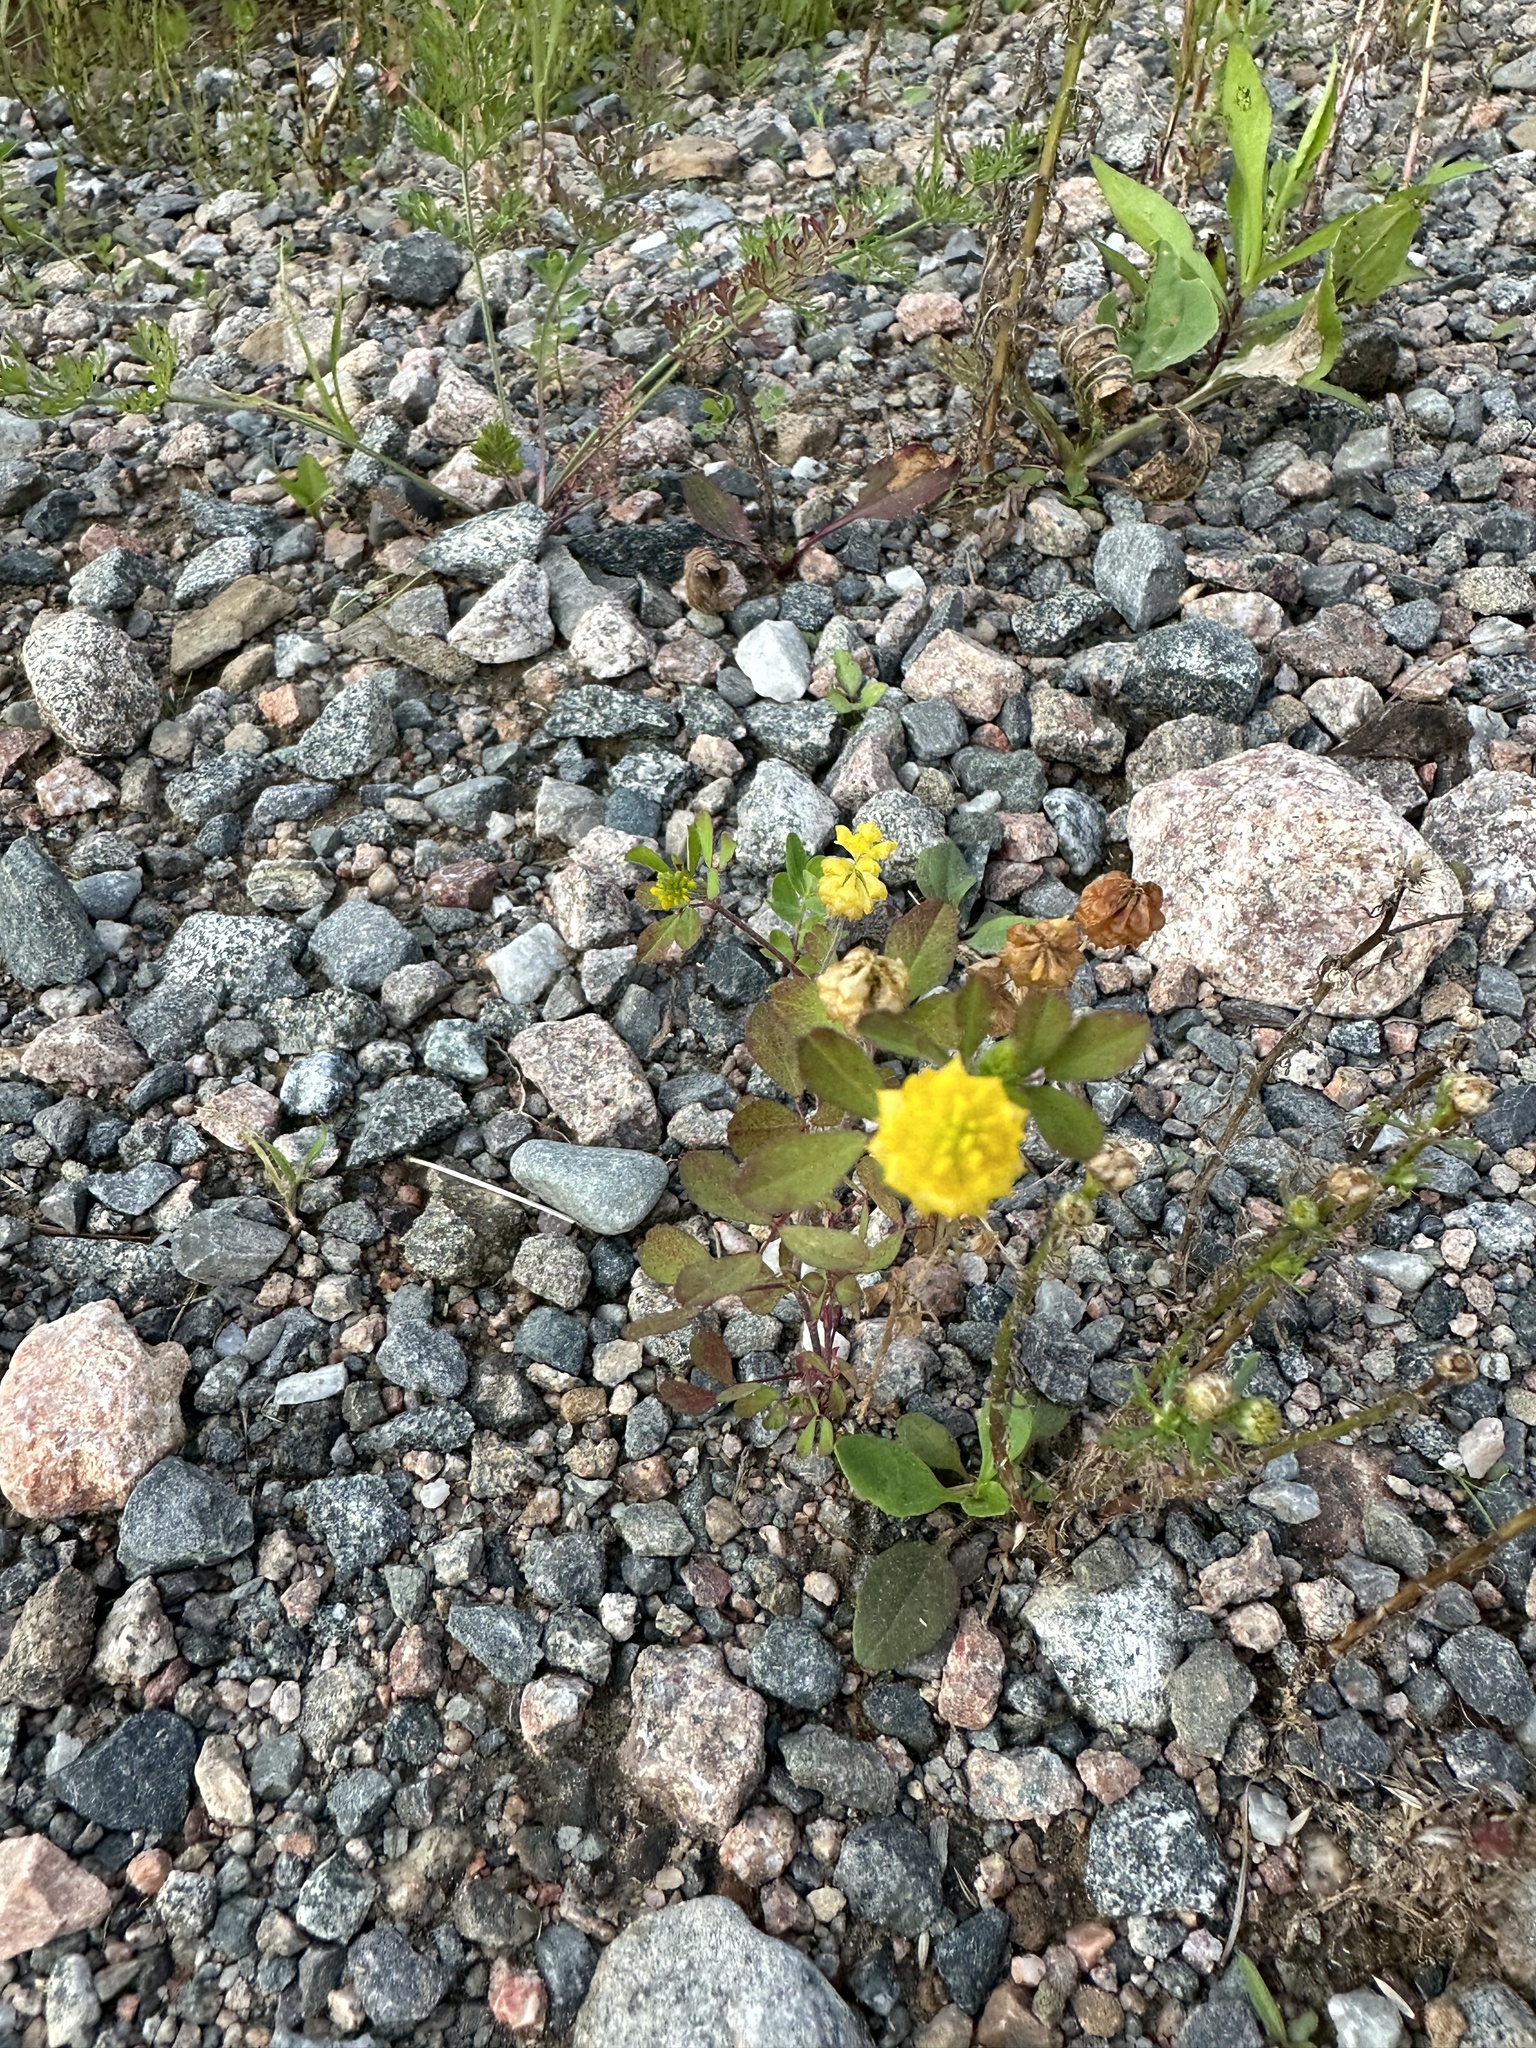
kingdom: Plantae
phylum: Tracheophyta
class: Magnoliopsida
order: Fabales
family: Fabaceae
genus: Trifolium
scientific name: Trifolium campestre
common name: Field clover
